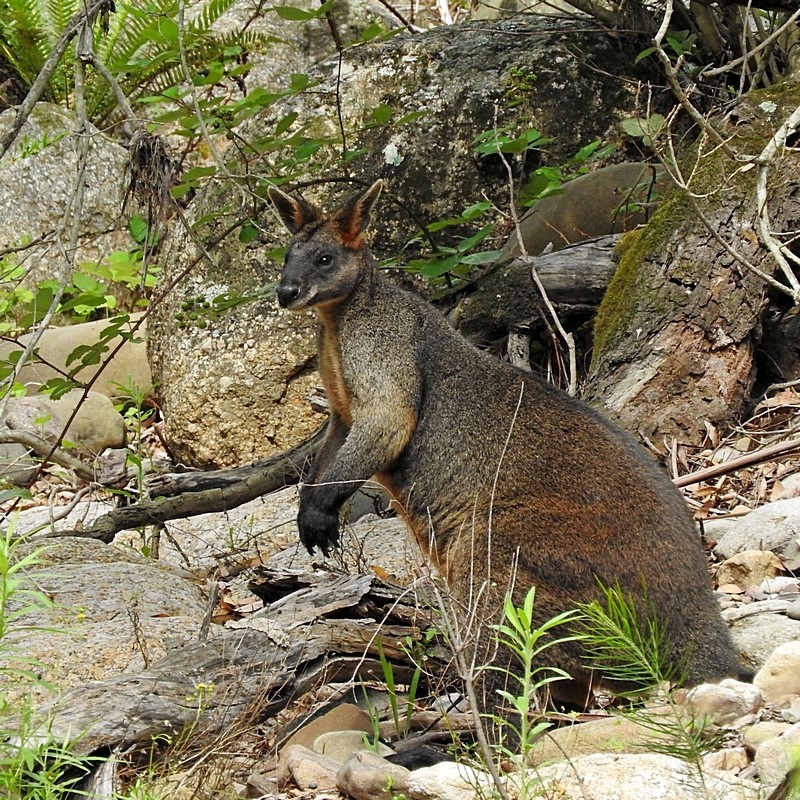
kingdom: Animalia
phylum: Chordata
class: Mammalia
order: Diprotodontia
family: Macropodidae
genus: Wallabia
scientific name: Wallabia bicolor
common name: Swamp wallaby
